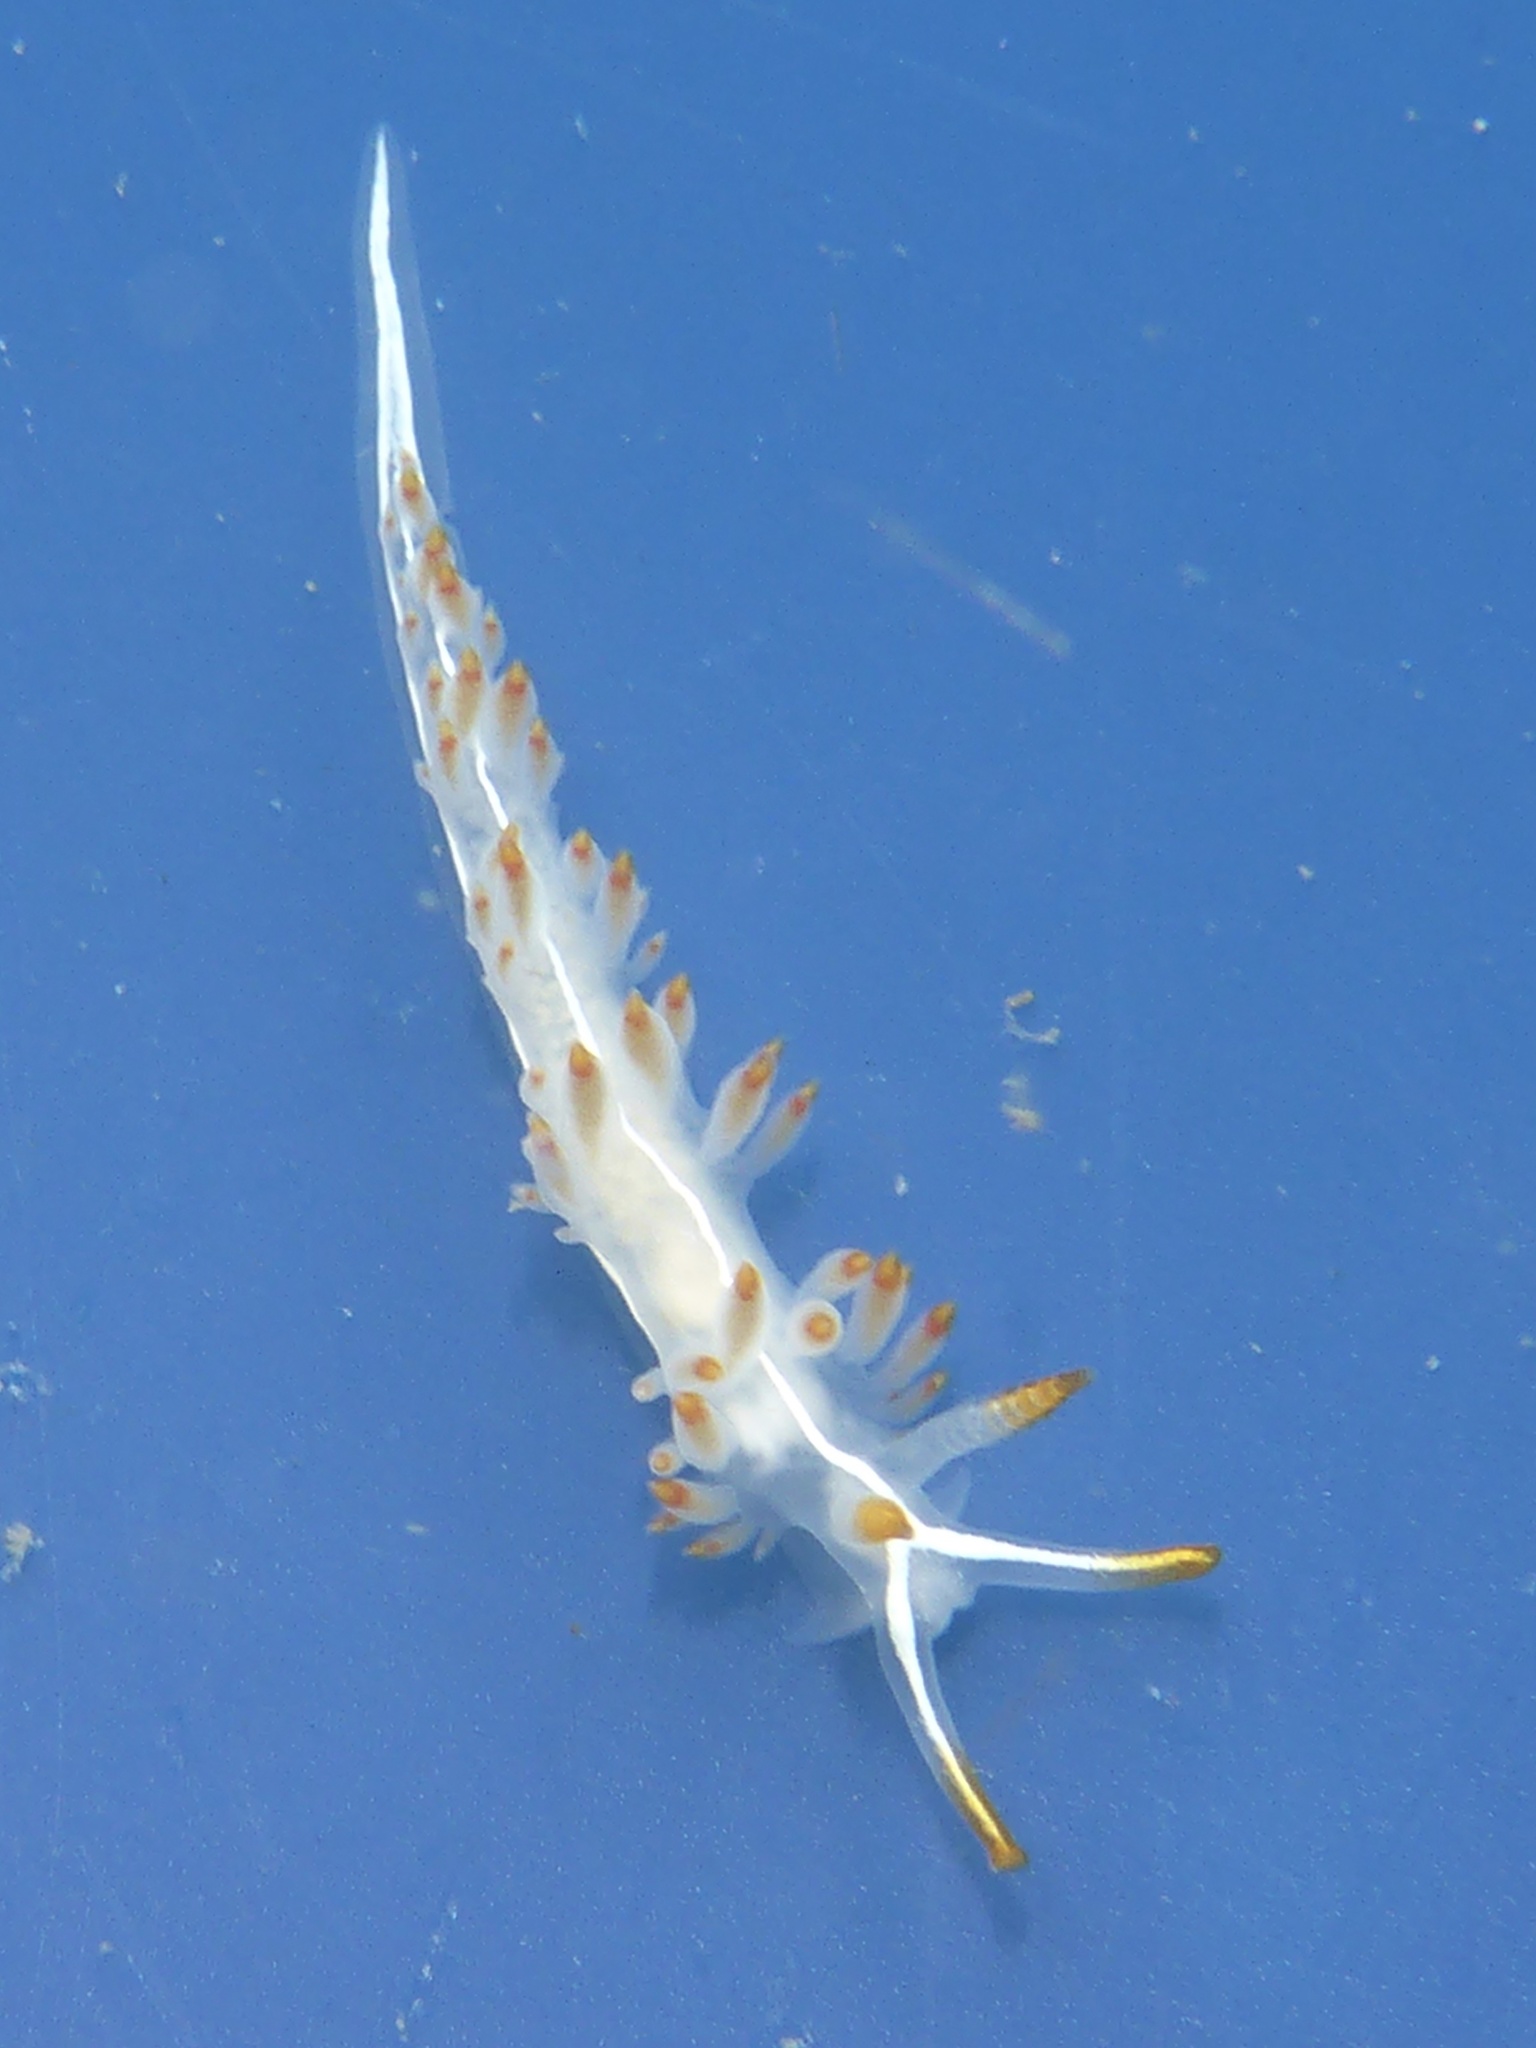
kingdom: Animalia
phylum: Mollusca
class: Gastropoda
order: Nudibranchia
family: Coryphellidae
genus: Coryphella
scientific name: Coryphella trilineata
